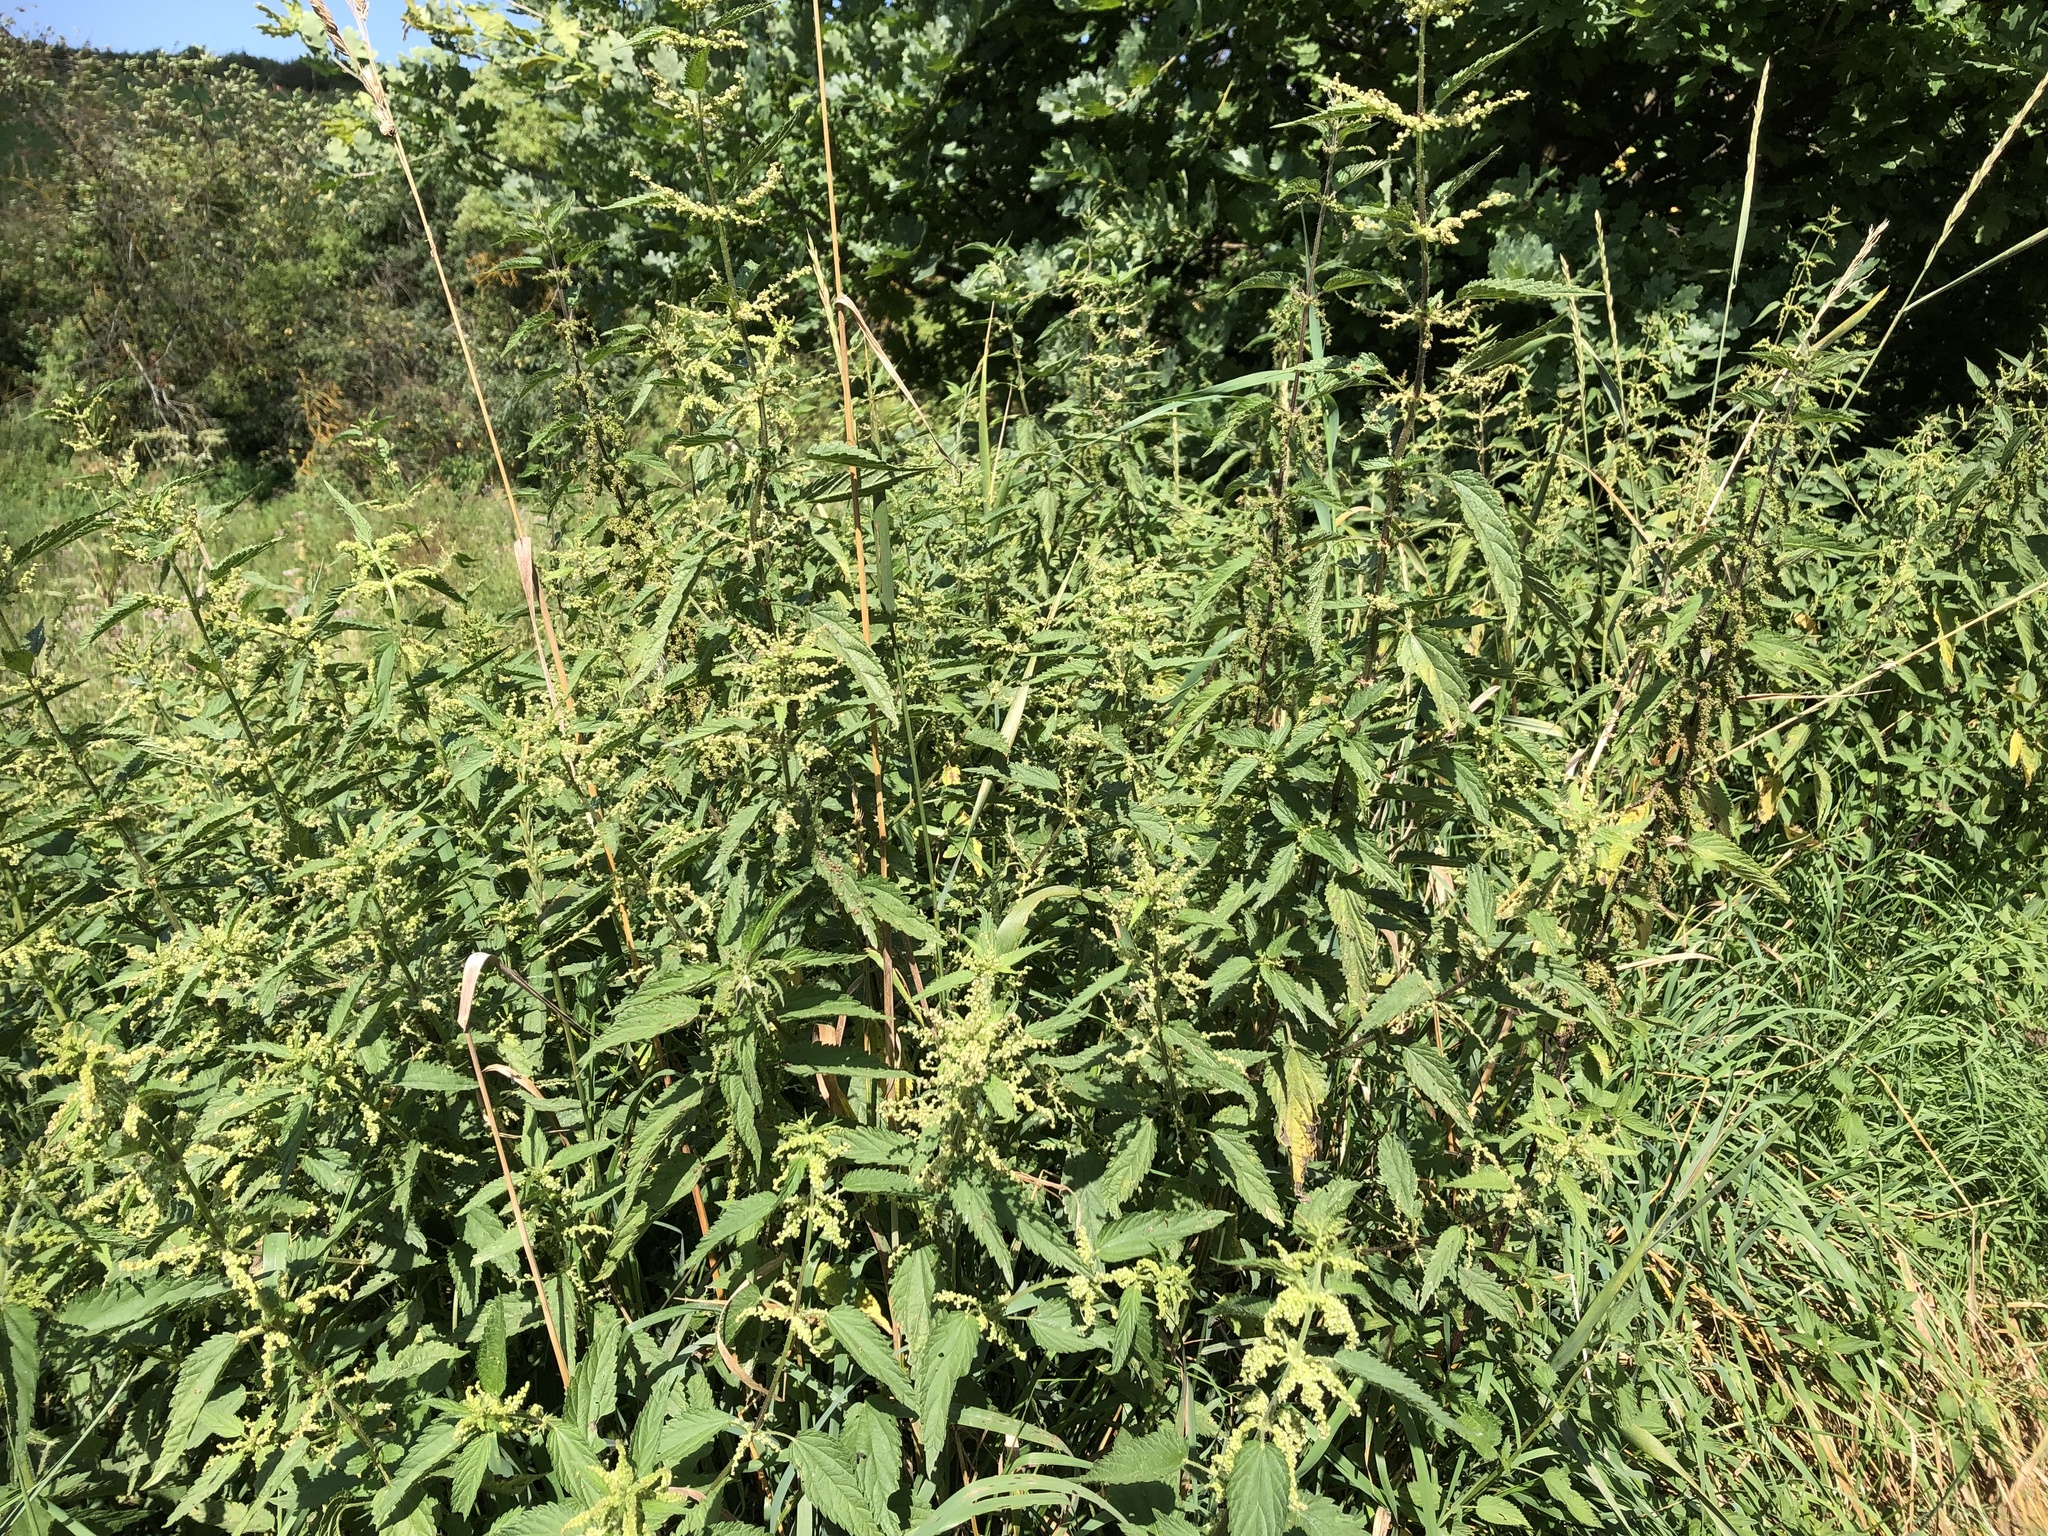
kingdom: Plantae
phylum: Tracheophyta
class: Magnoliopsida
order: Rosales
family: Urticaceae
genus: Urtica
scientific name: Urtica dioica
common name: Common nettle
